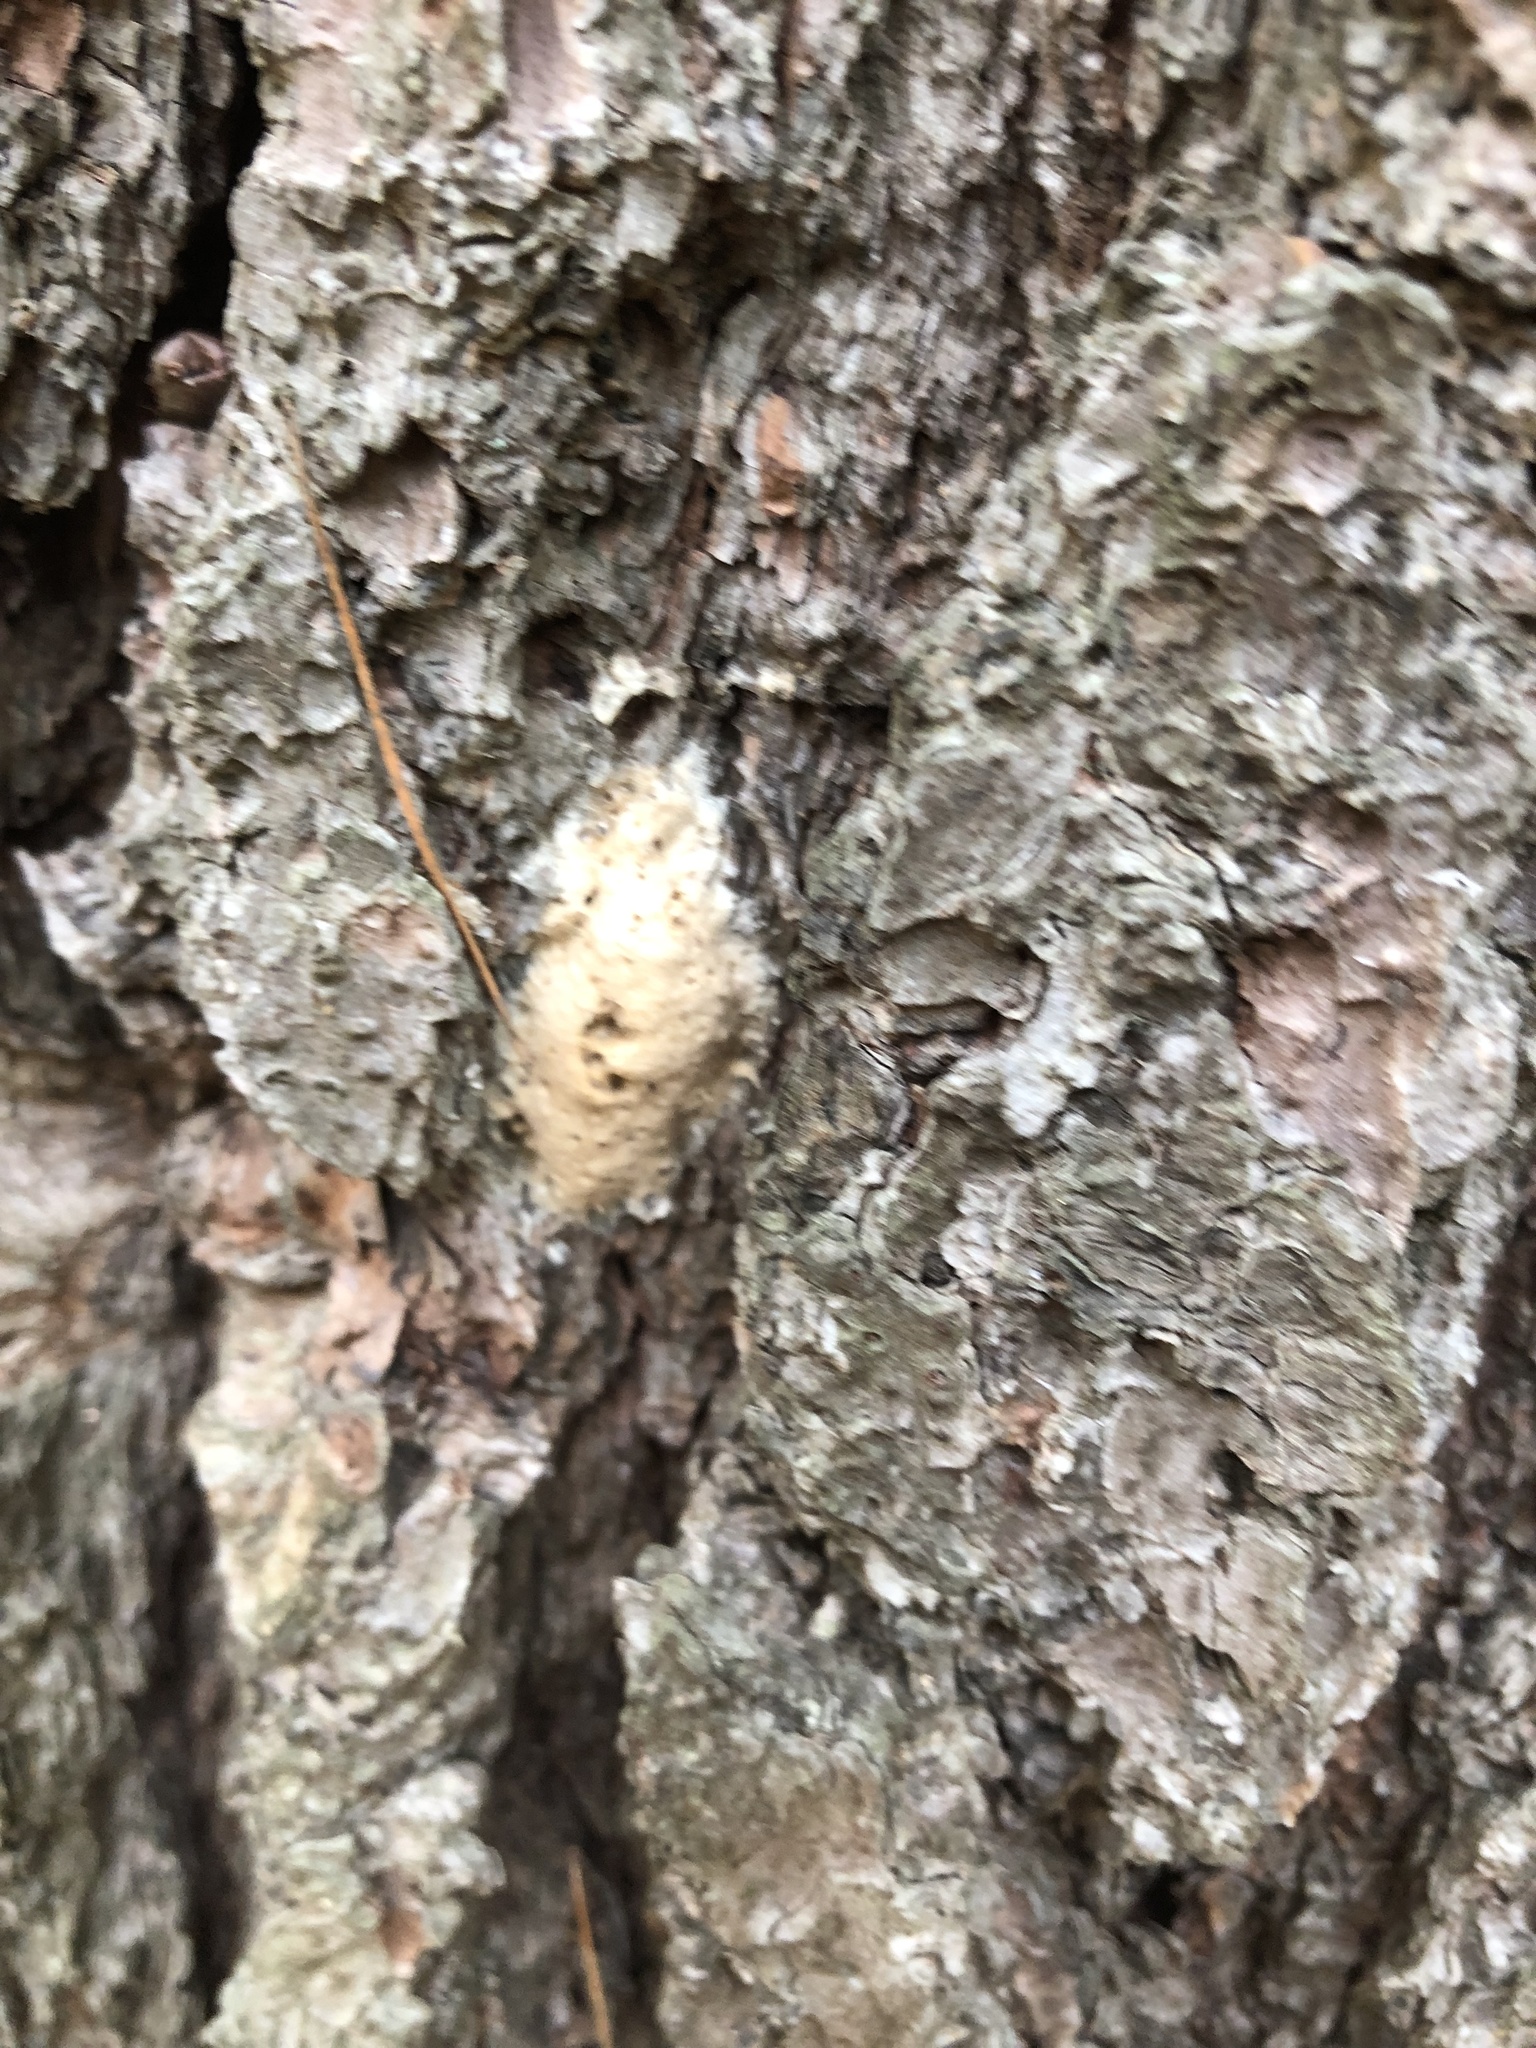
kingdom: Animalia
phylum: Arthropoda
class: Insecta
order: Lepidoptera
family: Erebidae
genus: Lymantria
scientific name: Lymantria dispar
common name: Gypsy moth
